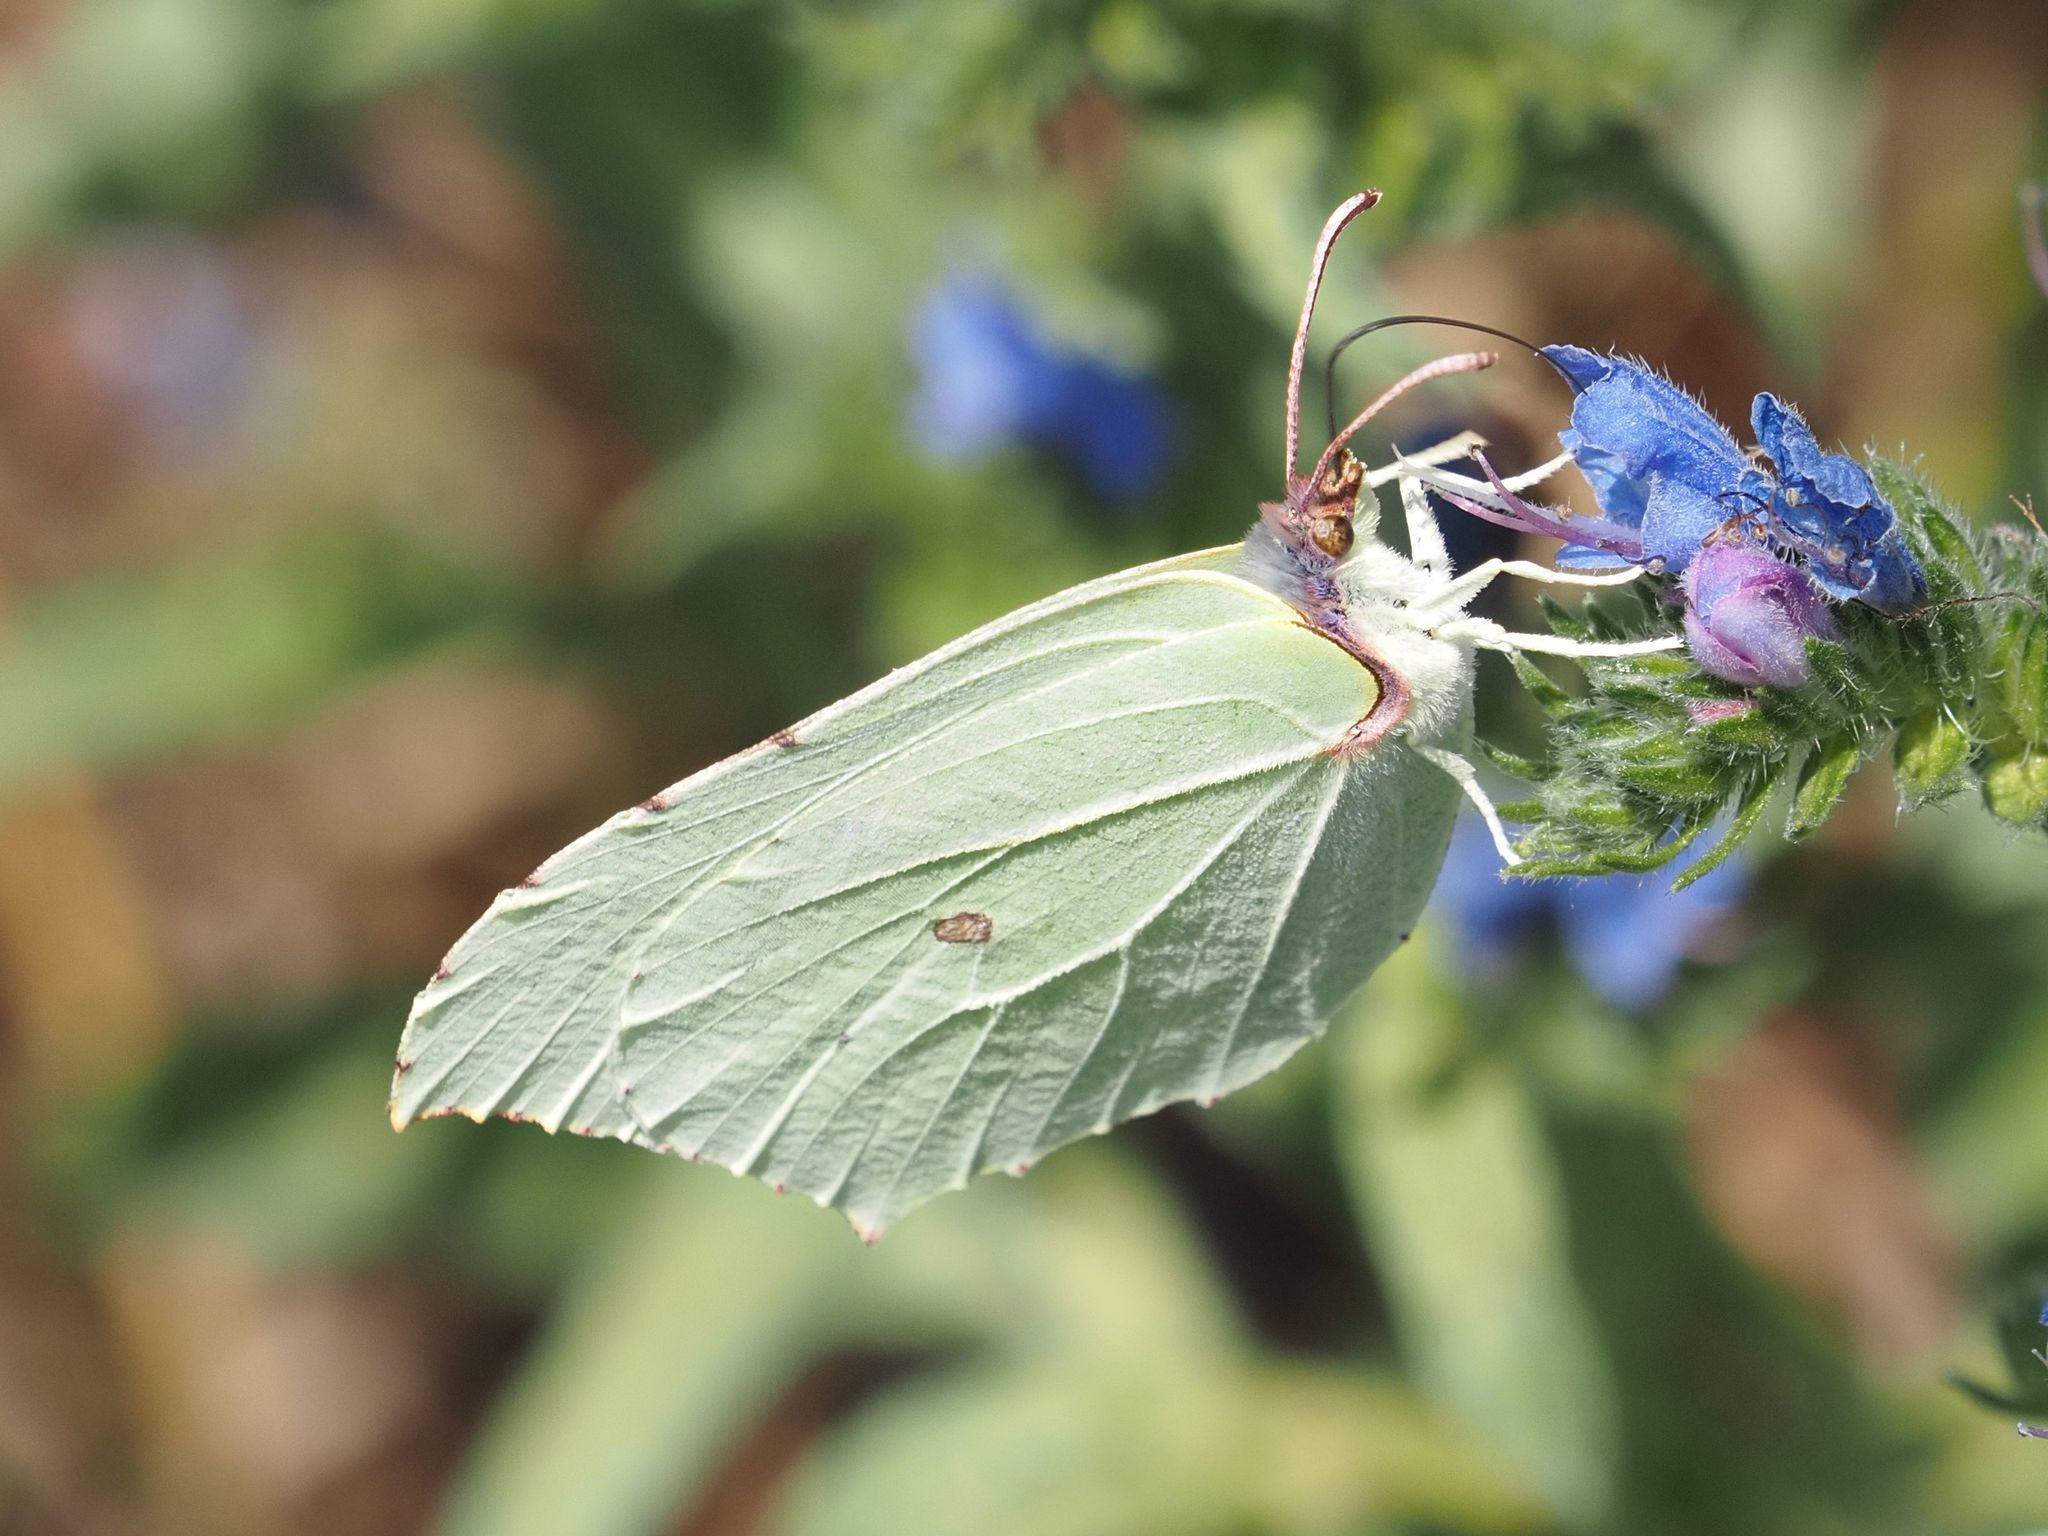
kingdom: Animalia
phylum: Arthropoda
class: Insecta
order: Lepidoptera
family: Pieridae
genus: Gonepteryx
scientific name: Gonepteryx rhamni
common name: Brimstone
